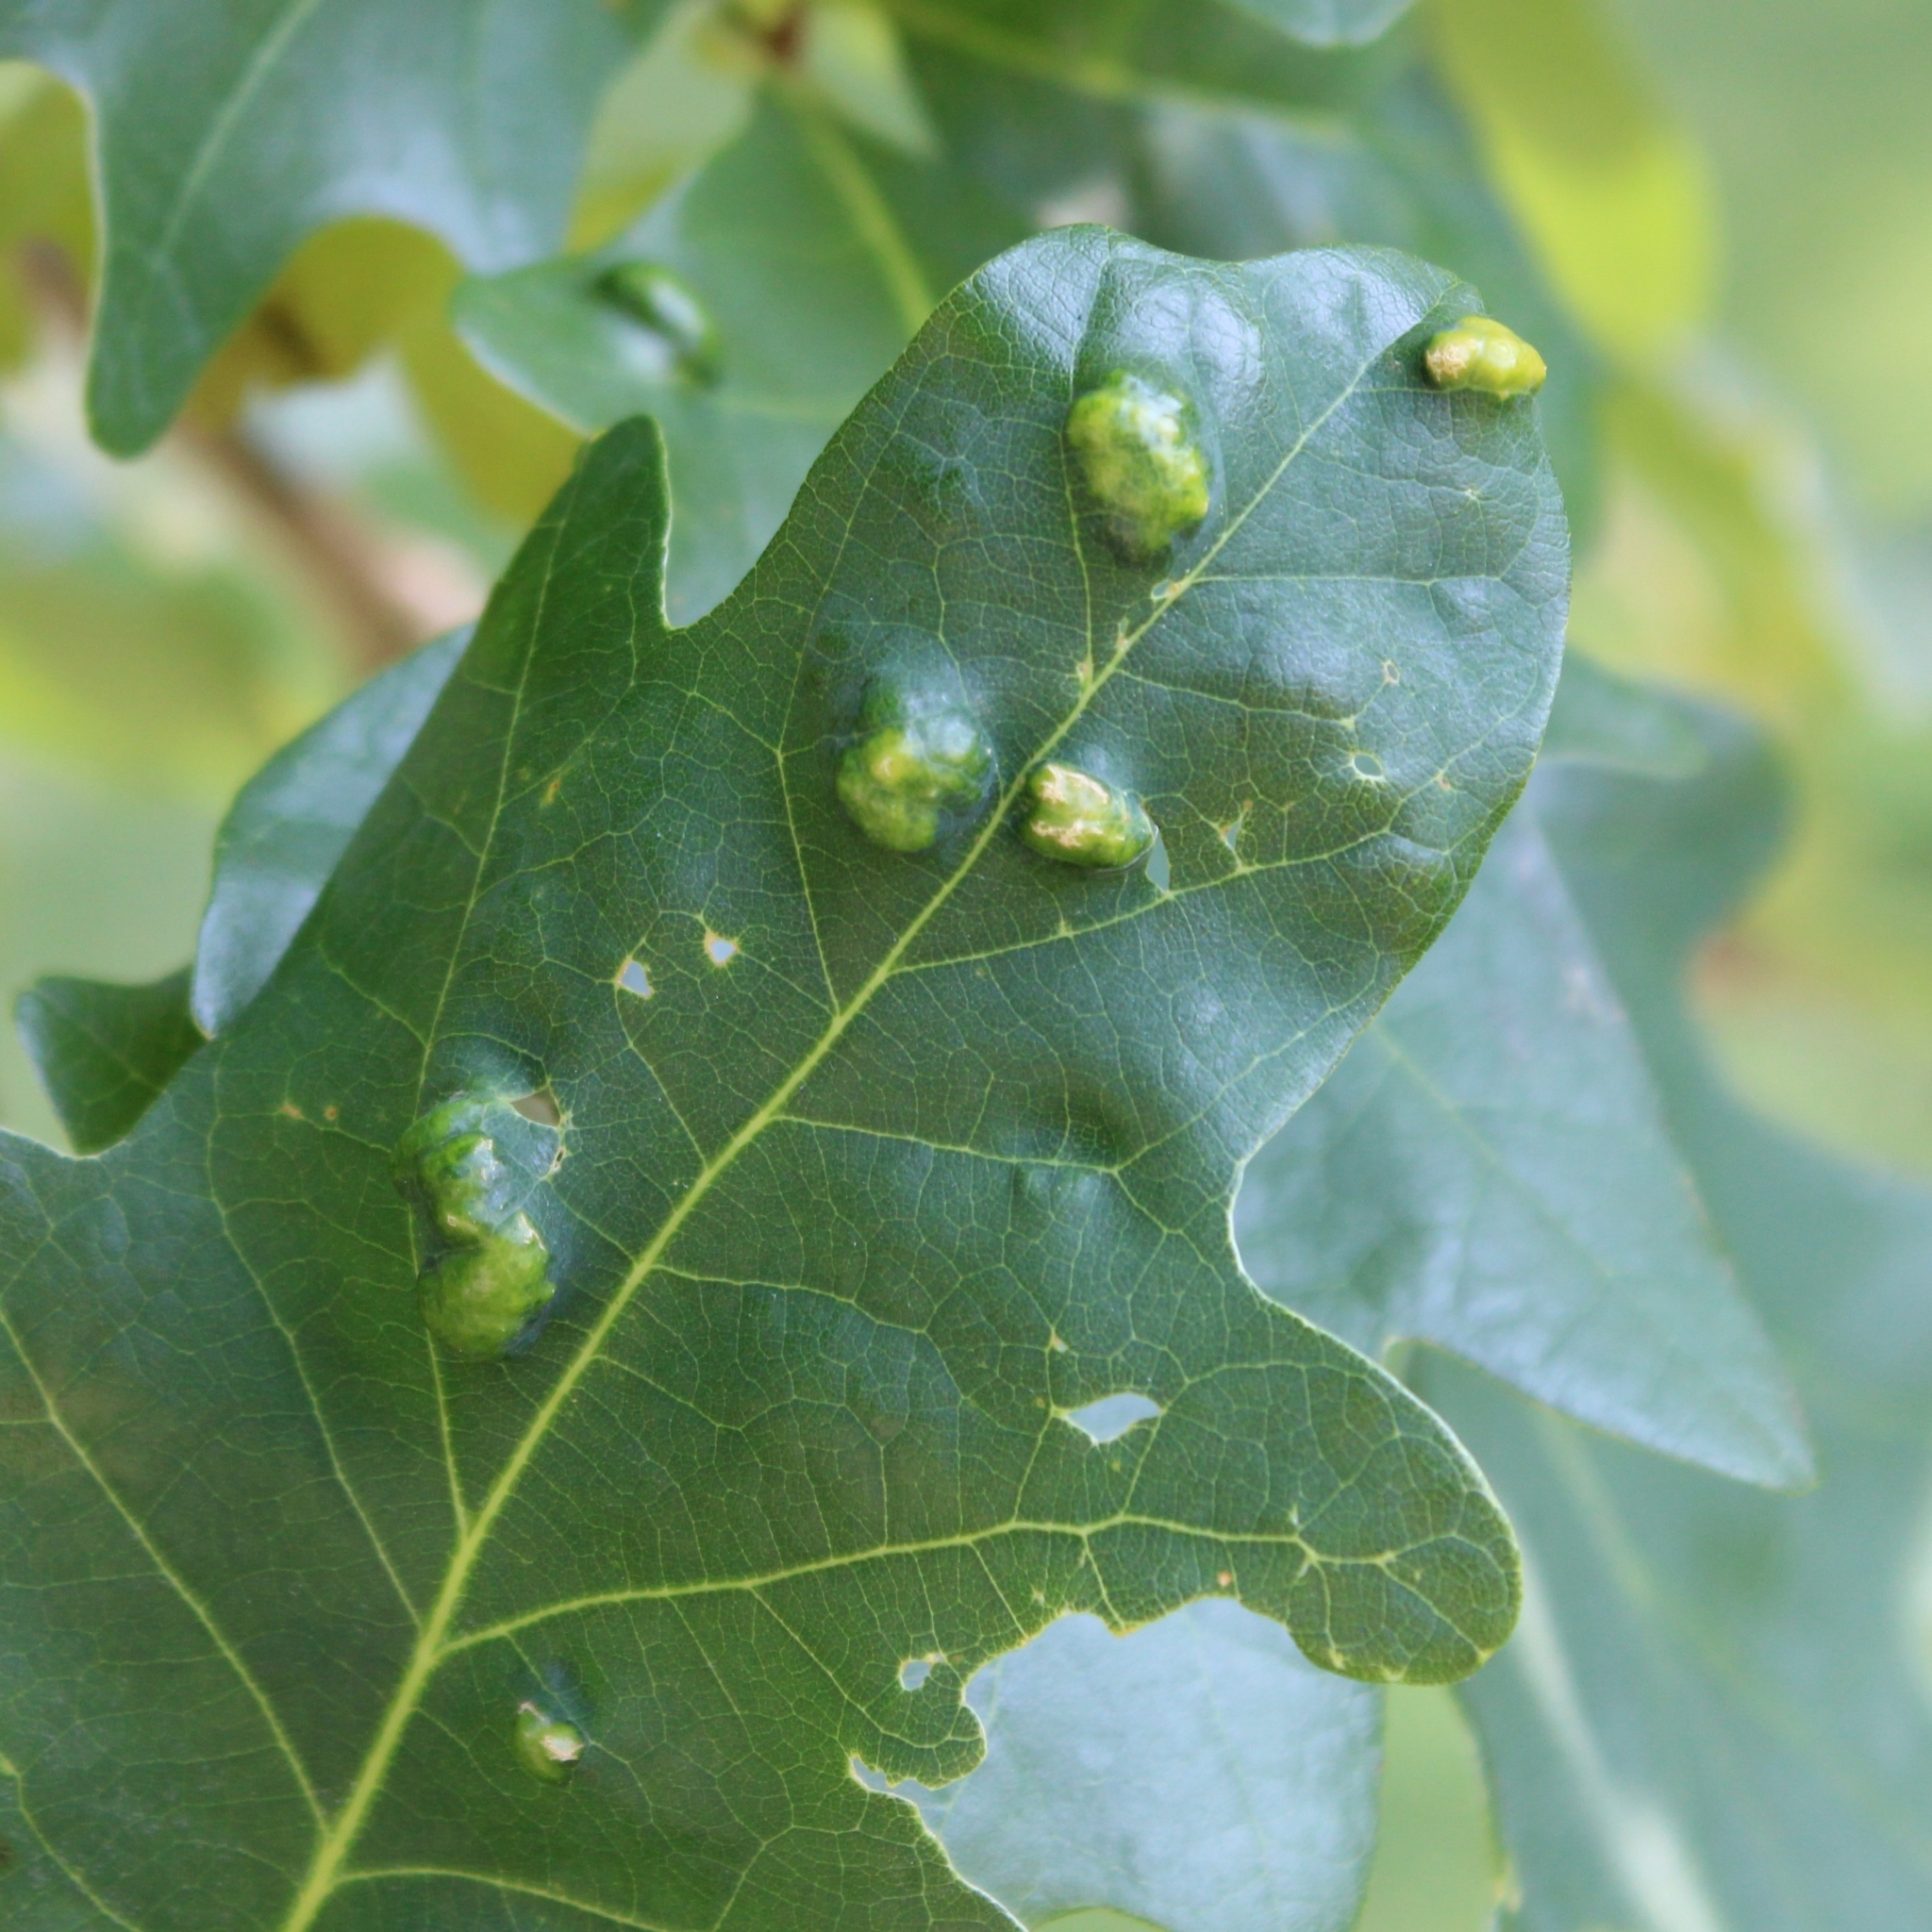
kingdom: Animalia
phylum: Arthropoda
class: Arachnida
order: Trombidiformes
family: Eriophyidae
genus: Aceria
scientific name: Aceria quercina
